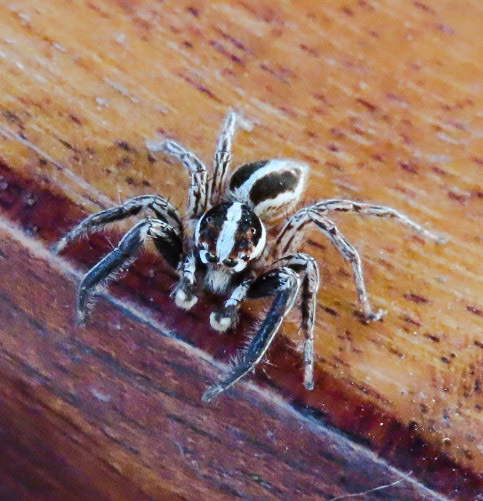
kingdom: Animalia
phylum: Arthropoda
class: Arachnida
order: Araneae
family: Salticidae
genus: Plexippus
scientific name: Plexippus paykulli
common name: Pantropical jumper
